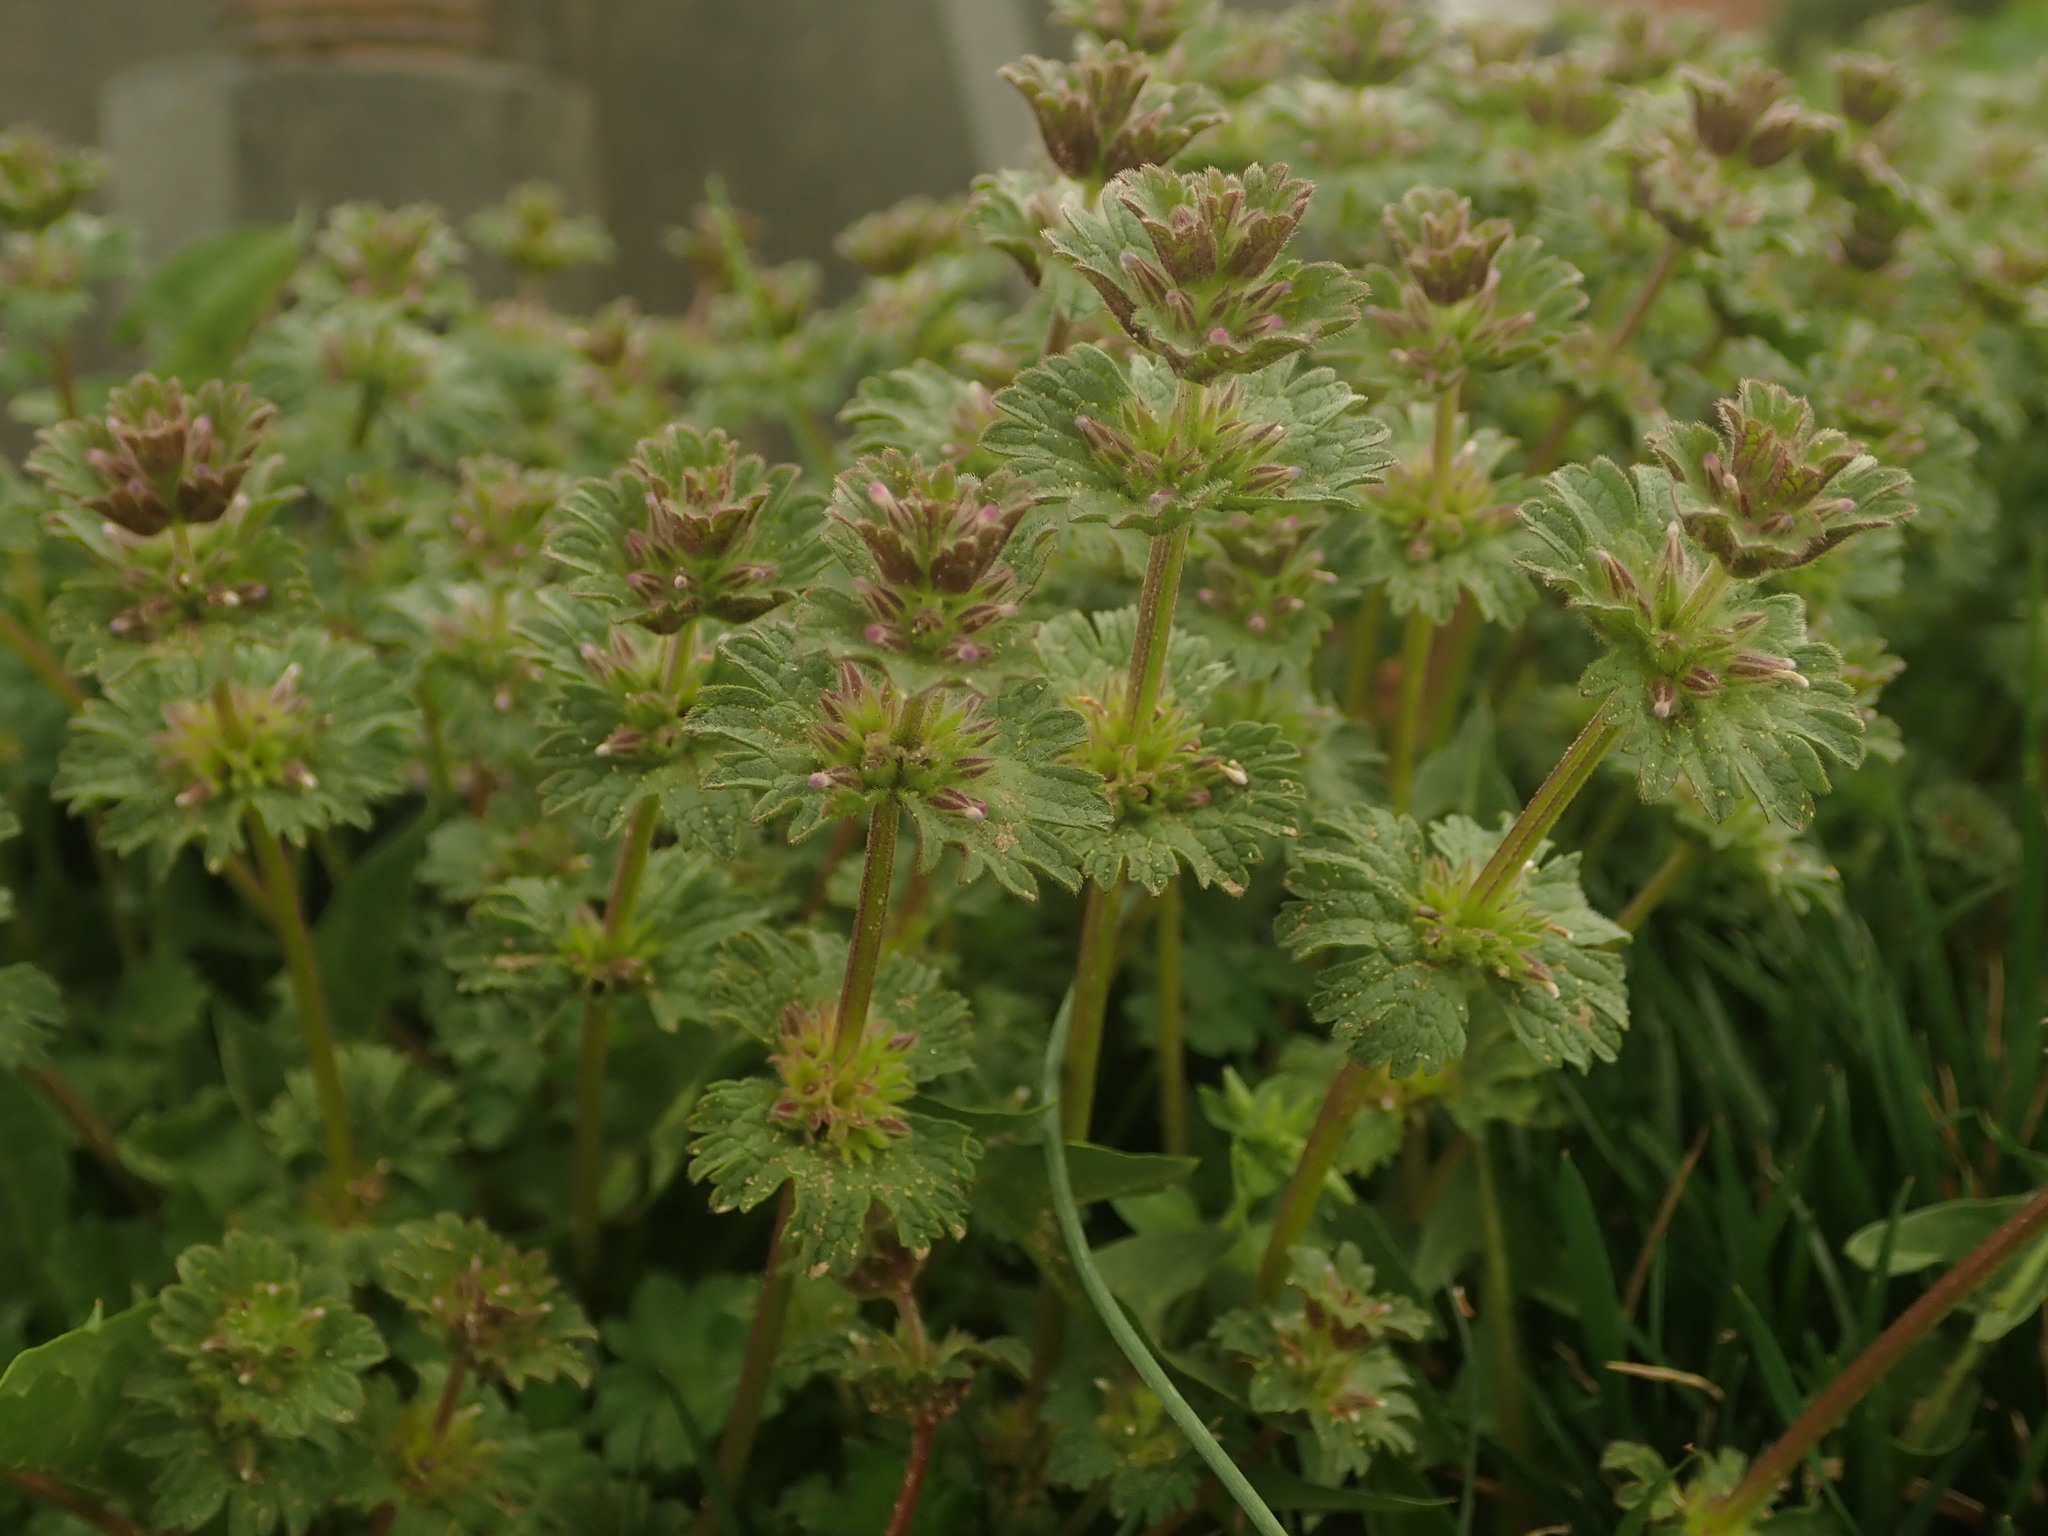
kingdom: Plantae
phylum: Tracheophyta
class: Magnoliopsida
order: Lamiales
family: Lamiaceae
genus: Lamium
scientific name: Lamium amplexicaule
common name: Henbit dead-nettle
